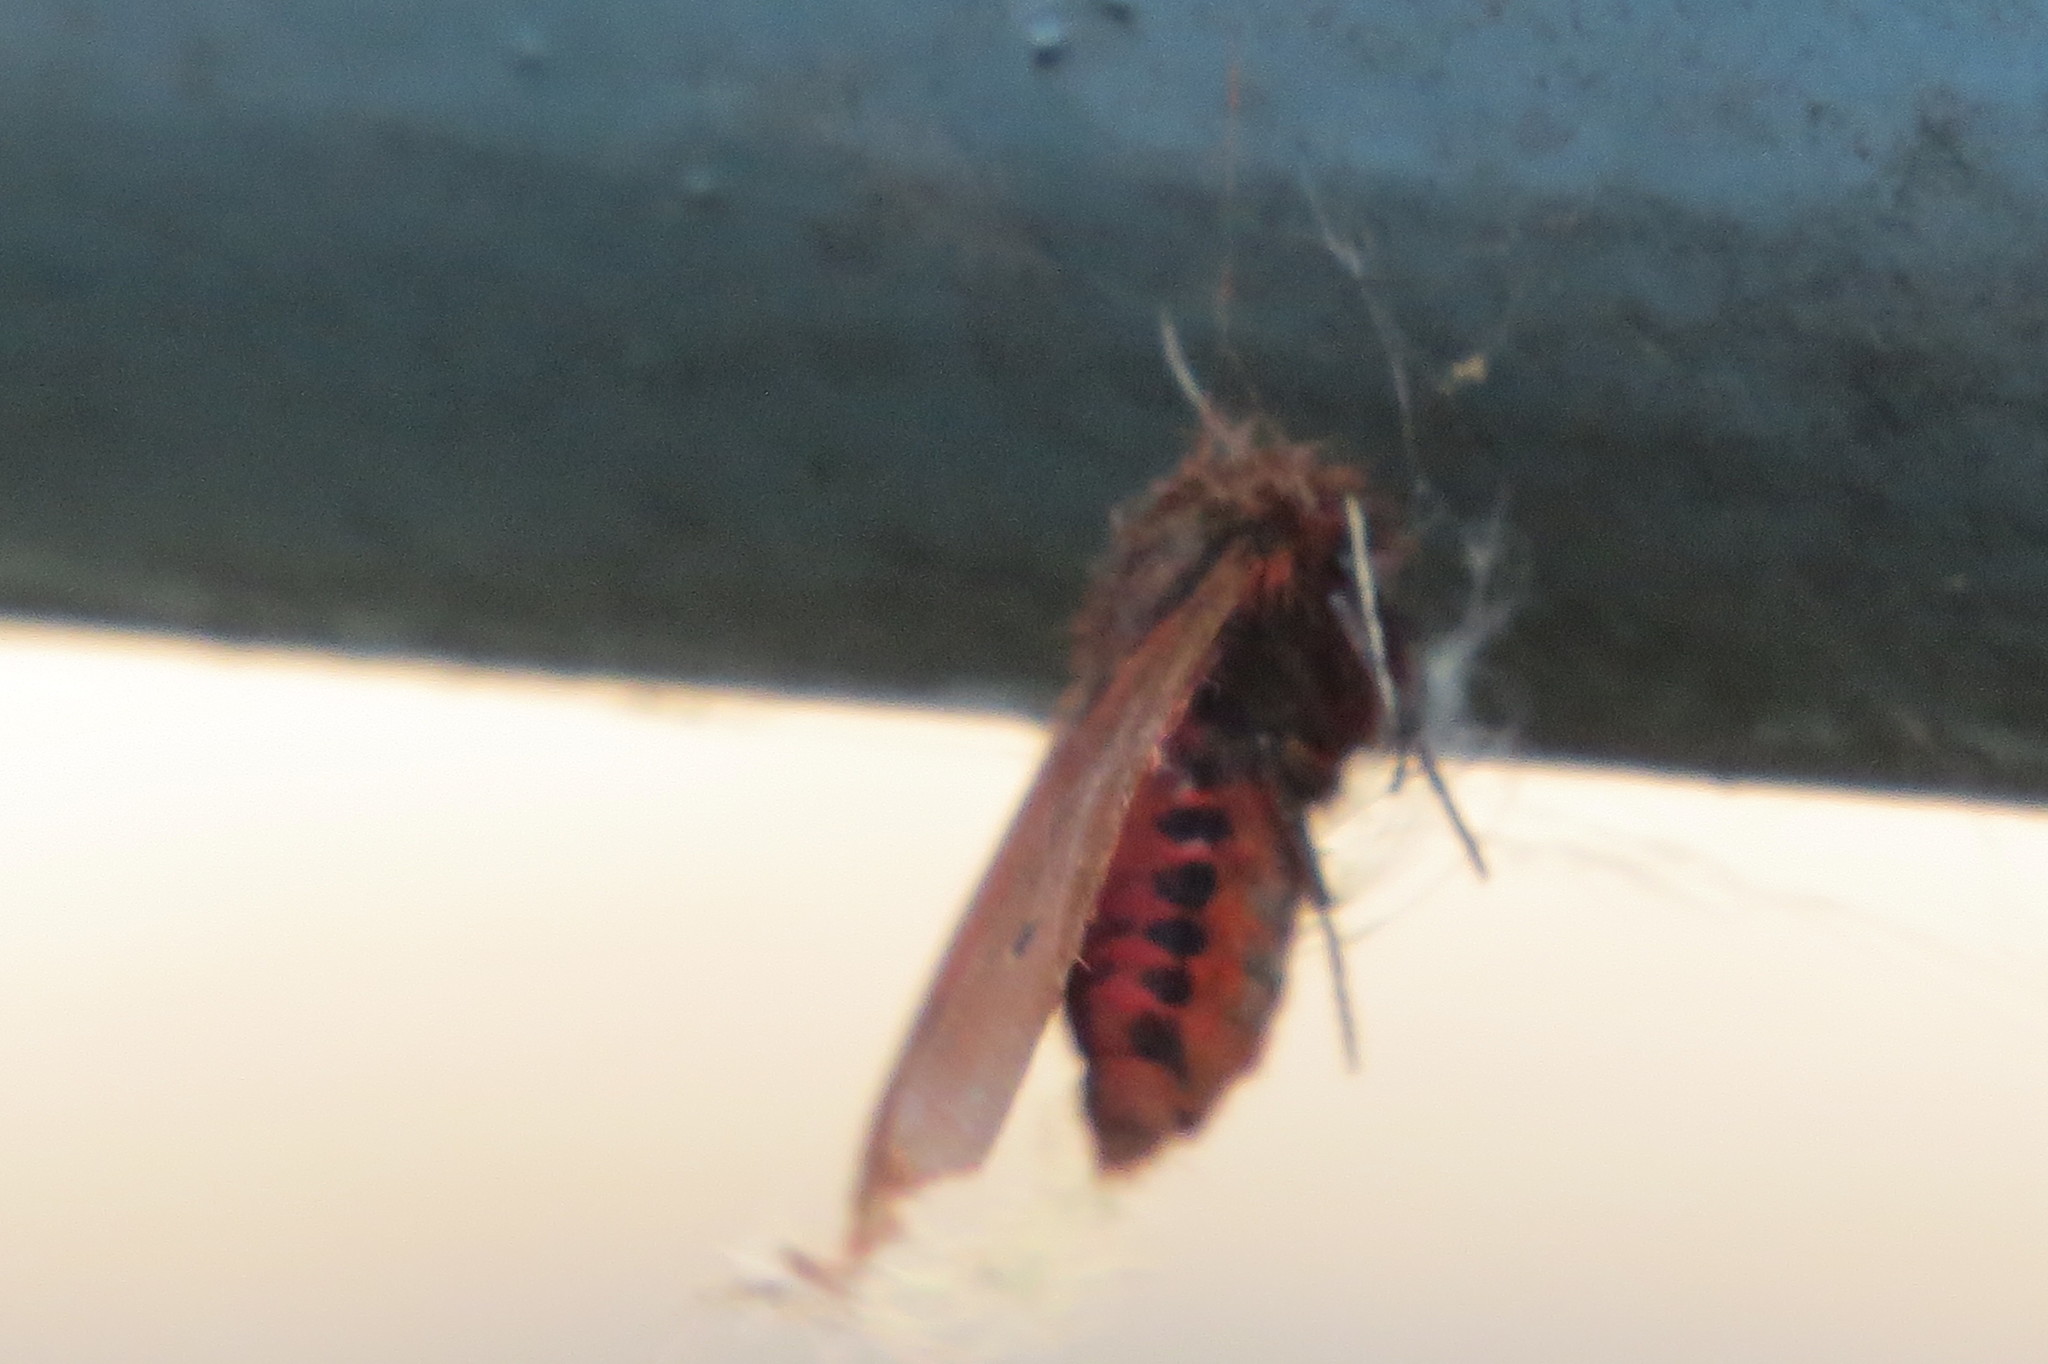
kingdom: Animalia
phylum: Arthropoda
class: Insecta
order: Lepidoptera
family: Erebidae
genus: Phragmatobia
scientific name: Phragmatobia fuliginosa
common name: Ruby tiger
